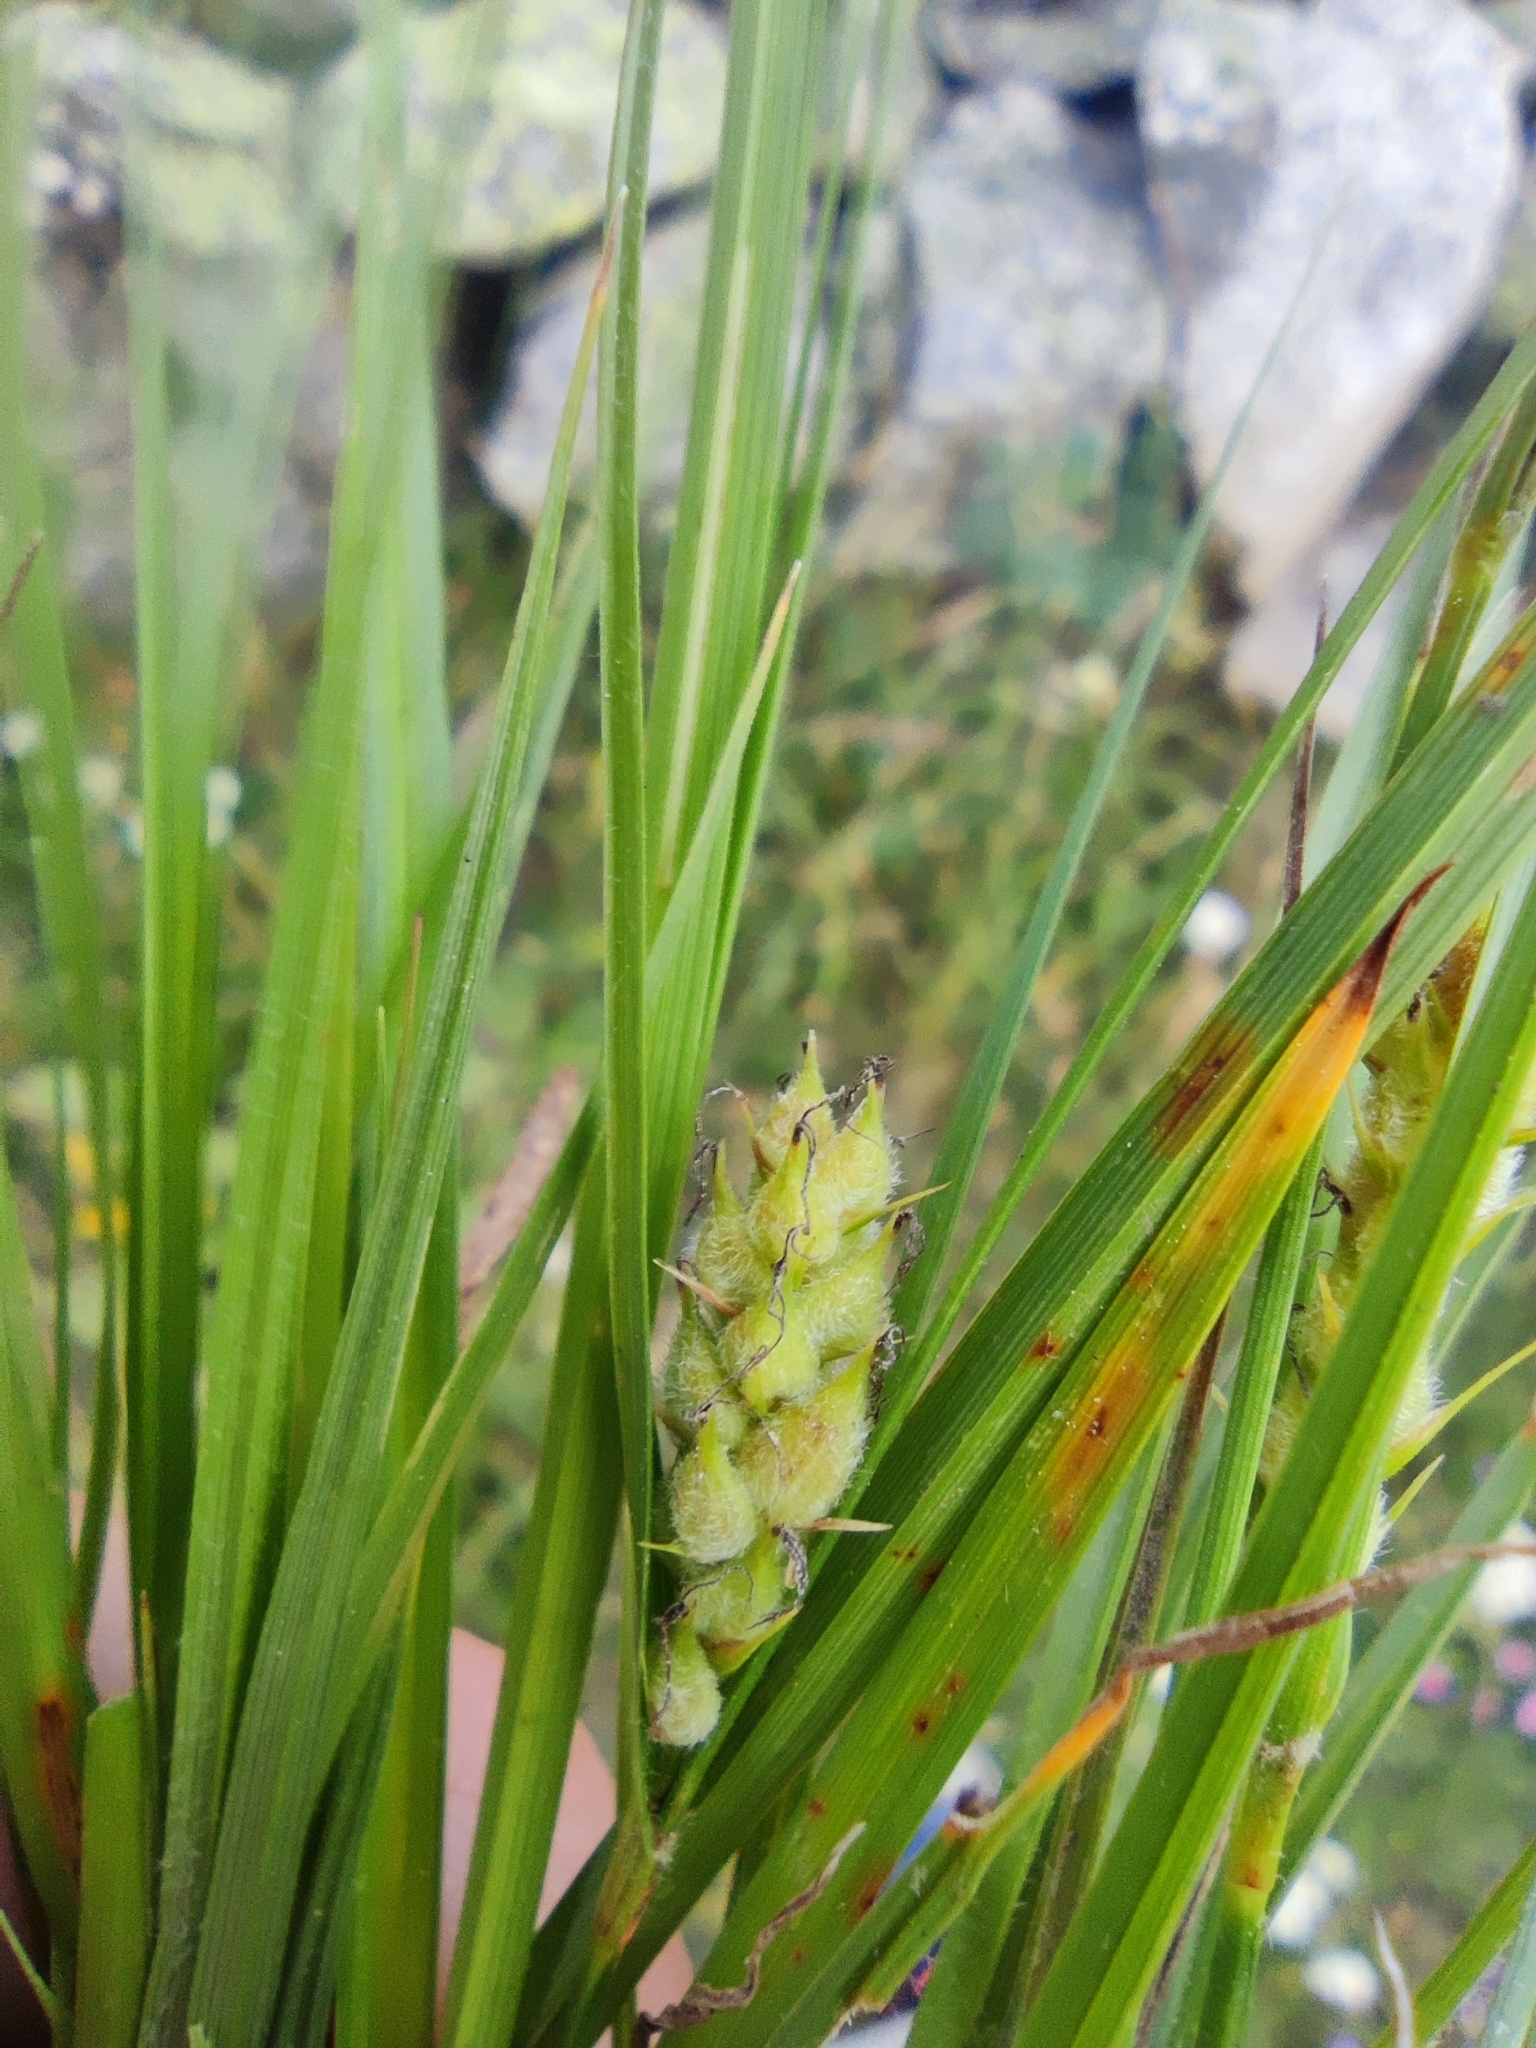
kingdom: Plantae
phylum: Tracheophyta
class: Liliopsida
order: Poales
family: Cyperaceae
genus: Carex
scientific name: Carex hirta
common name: Hairy sedge
